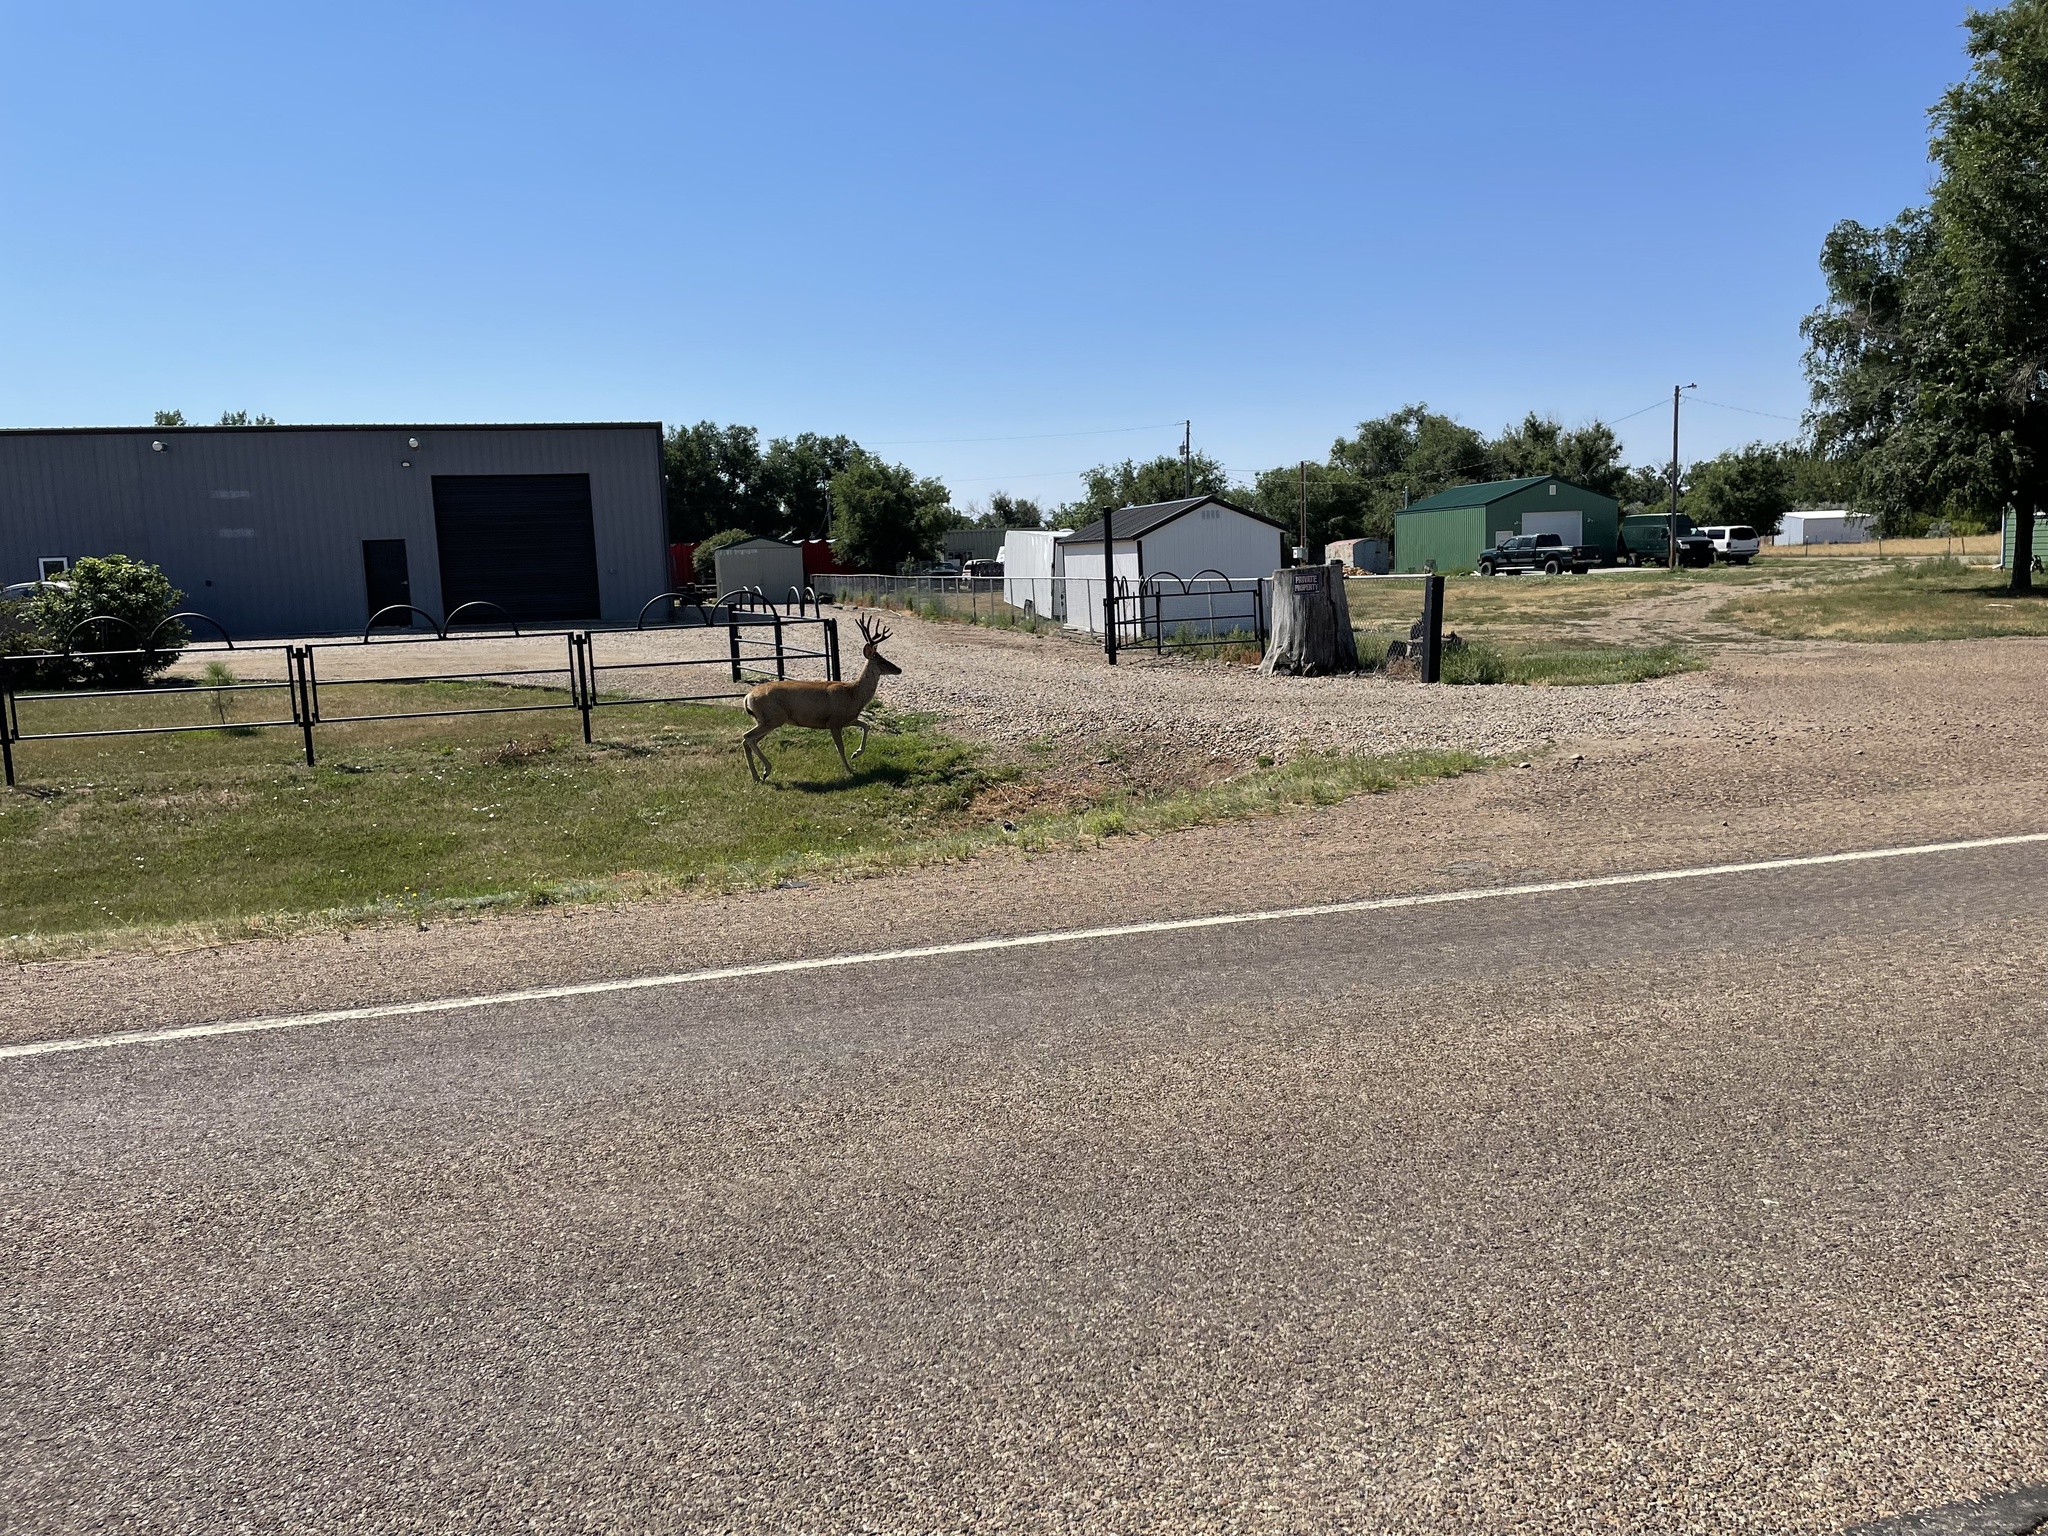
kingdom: Animalia
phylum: Chordata
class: Mammalia
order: Artiodactyla
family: Cervidae
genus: Odocoileus
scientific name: Odocoileus hemionus
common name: Mule deer
